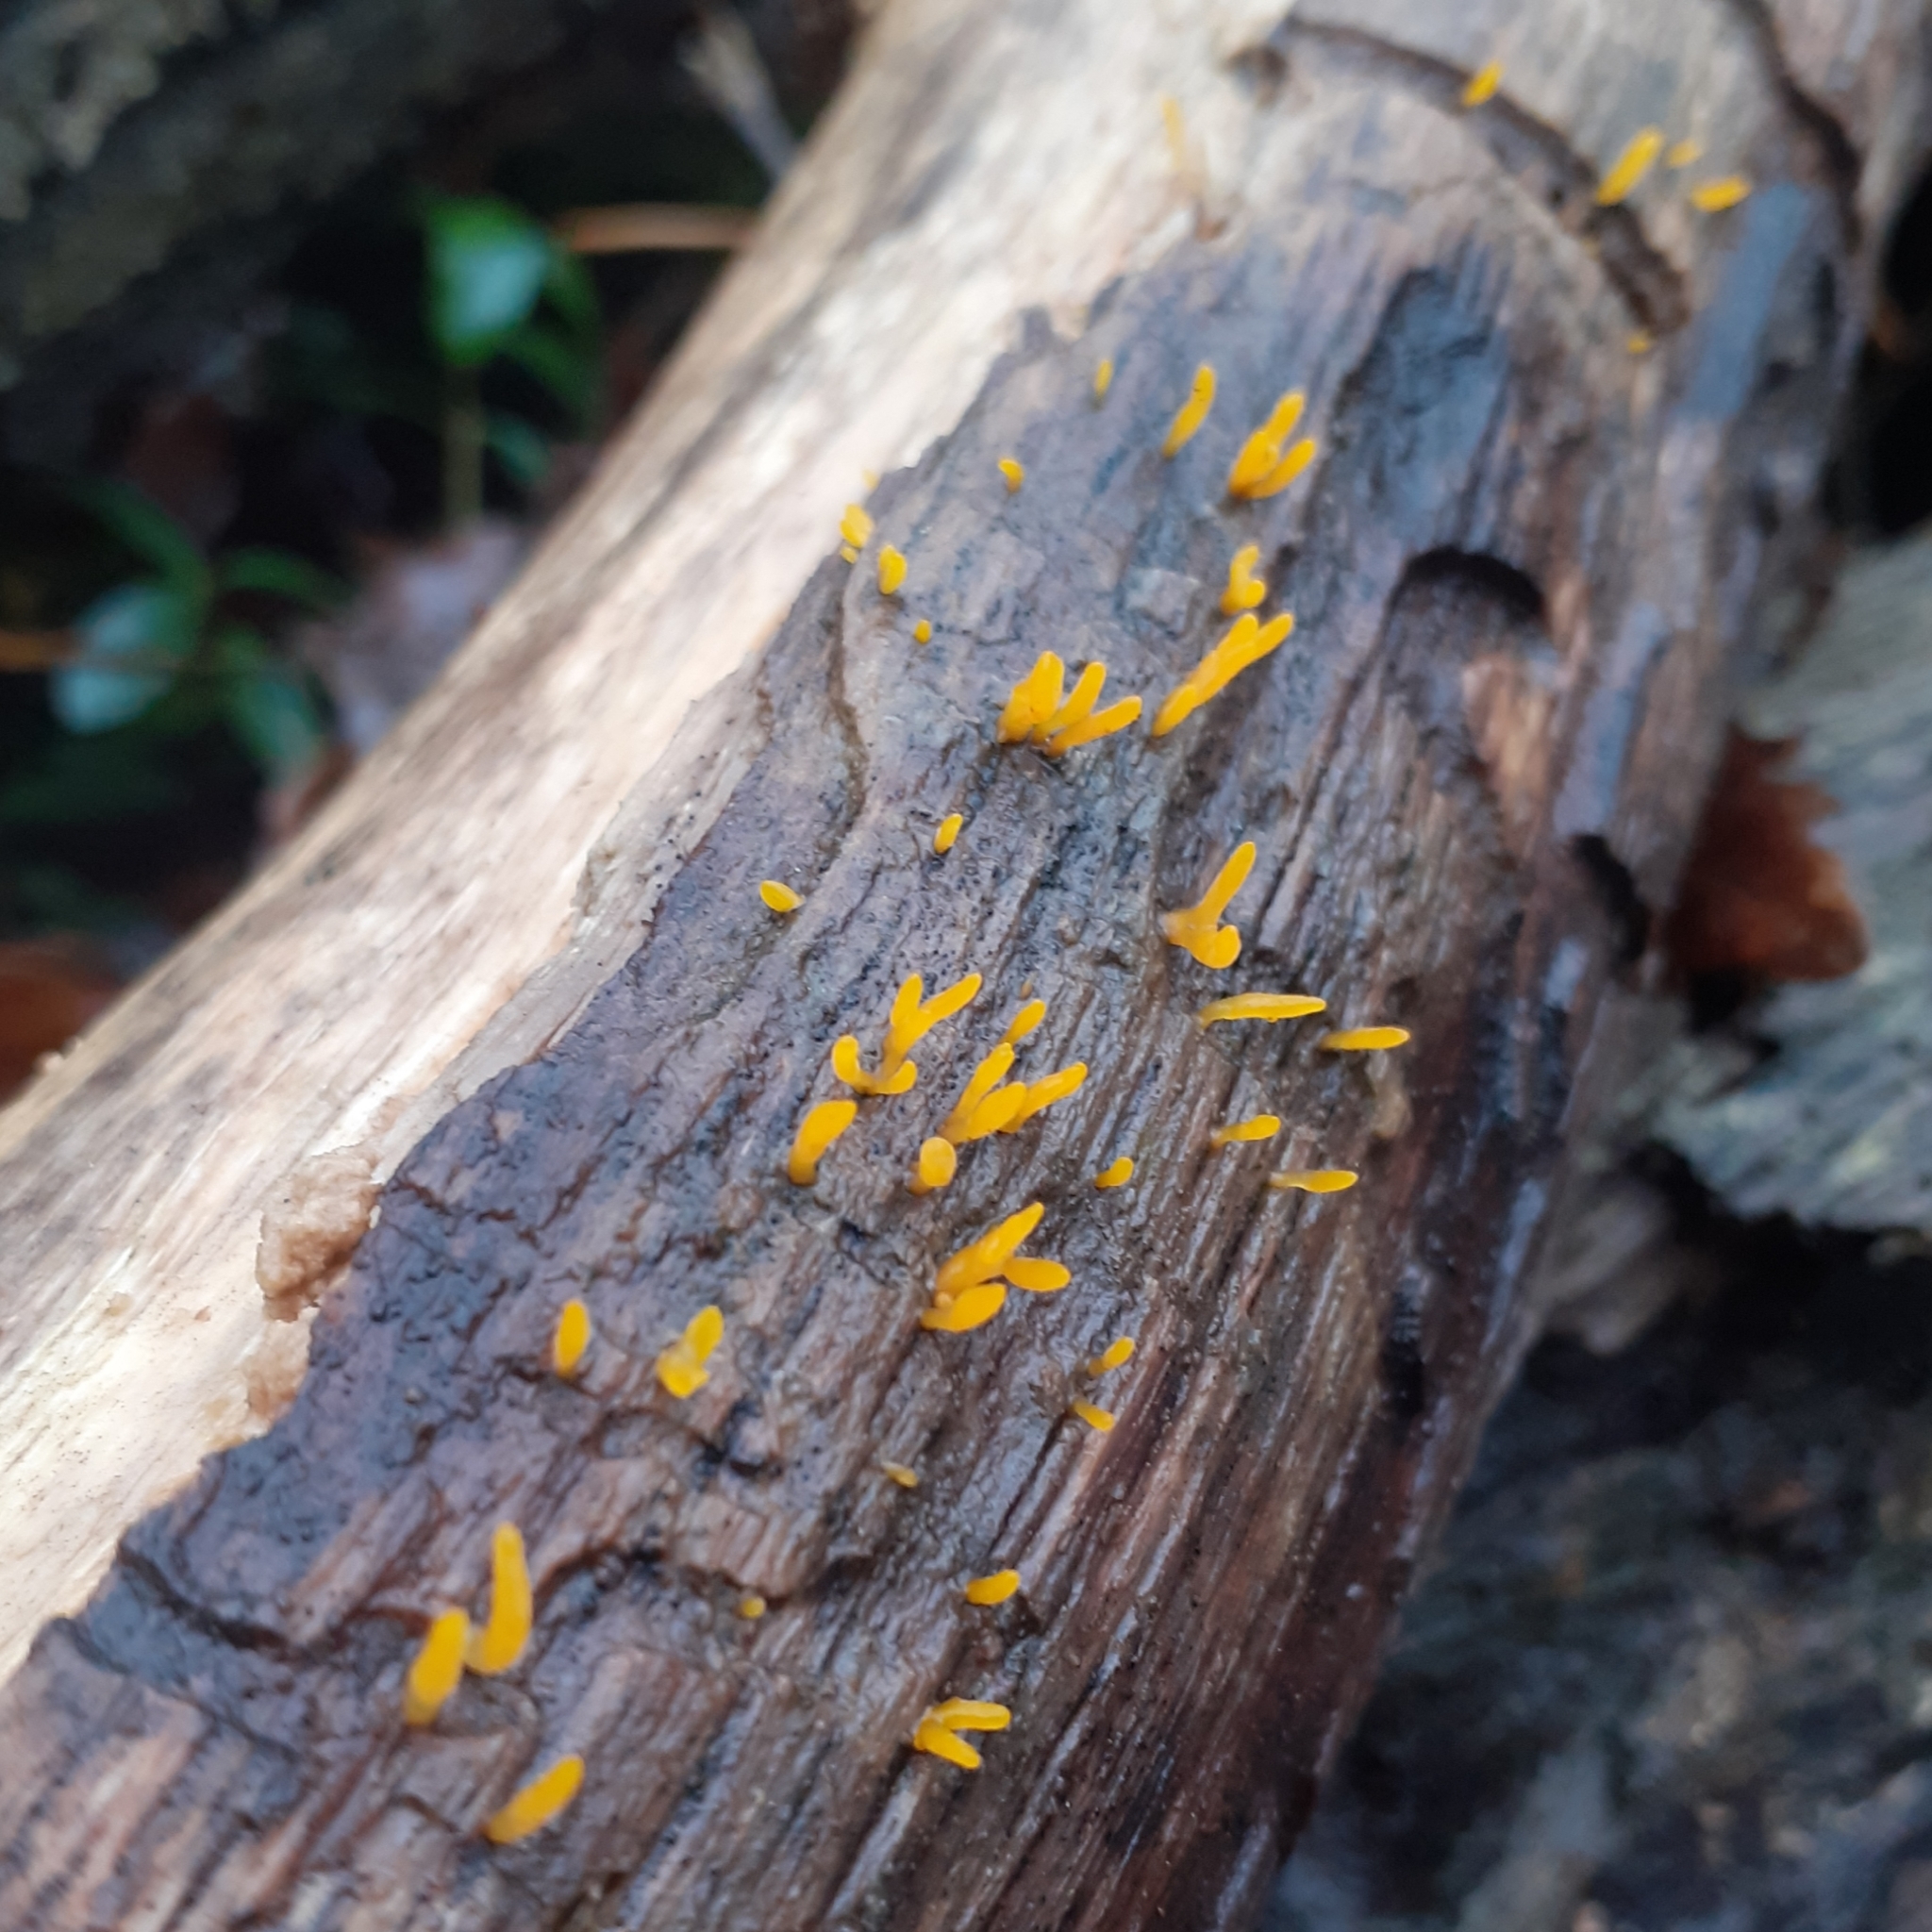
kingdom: Fungi
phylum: Basidiomycota
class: Dacrymycetes
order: Dacrymycetales
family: Dacrymycetaceae
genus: Calocera
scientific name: Calocera cornea
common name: Small stagshorn
